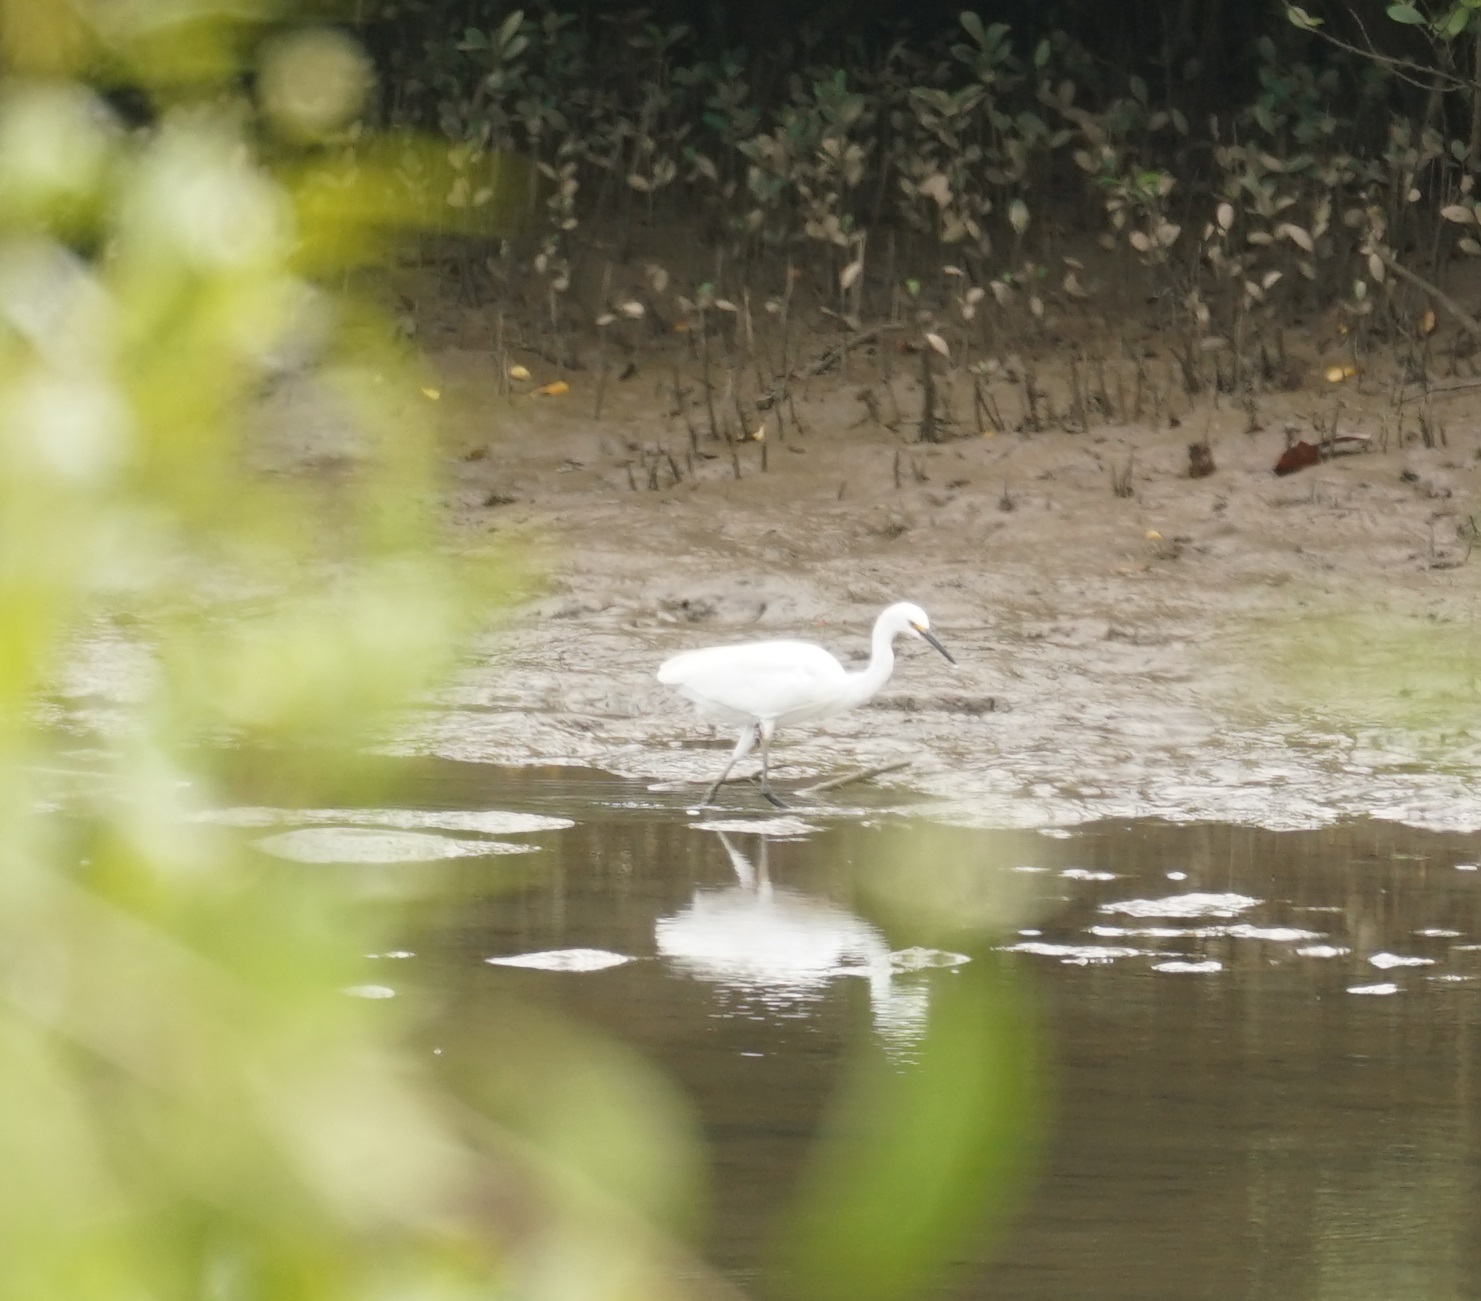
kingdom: Animalia
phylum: Chordata
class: Aves
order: Pelecaniformes
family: Ardeidae
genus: Egretta
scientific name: Egretta garzetta
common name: Little egret
